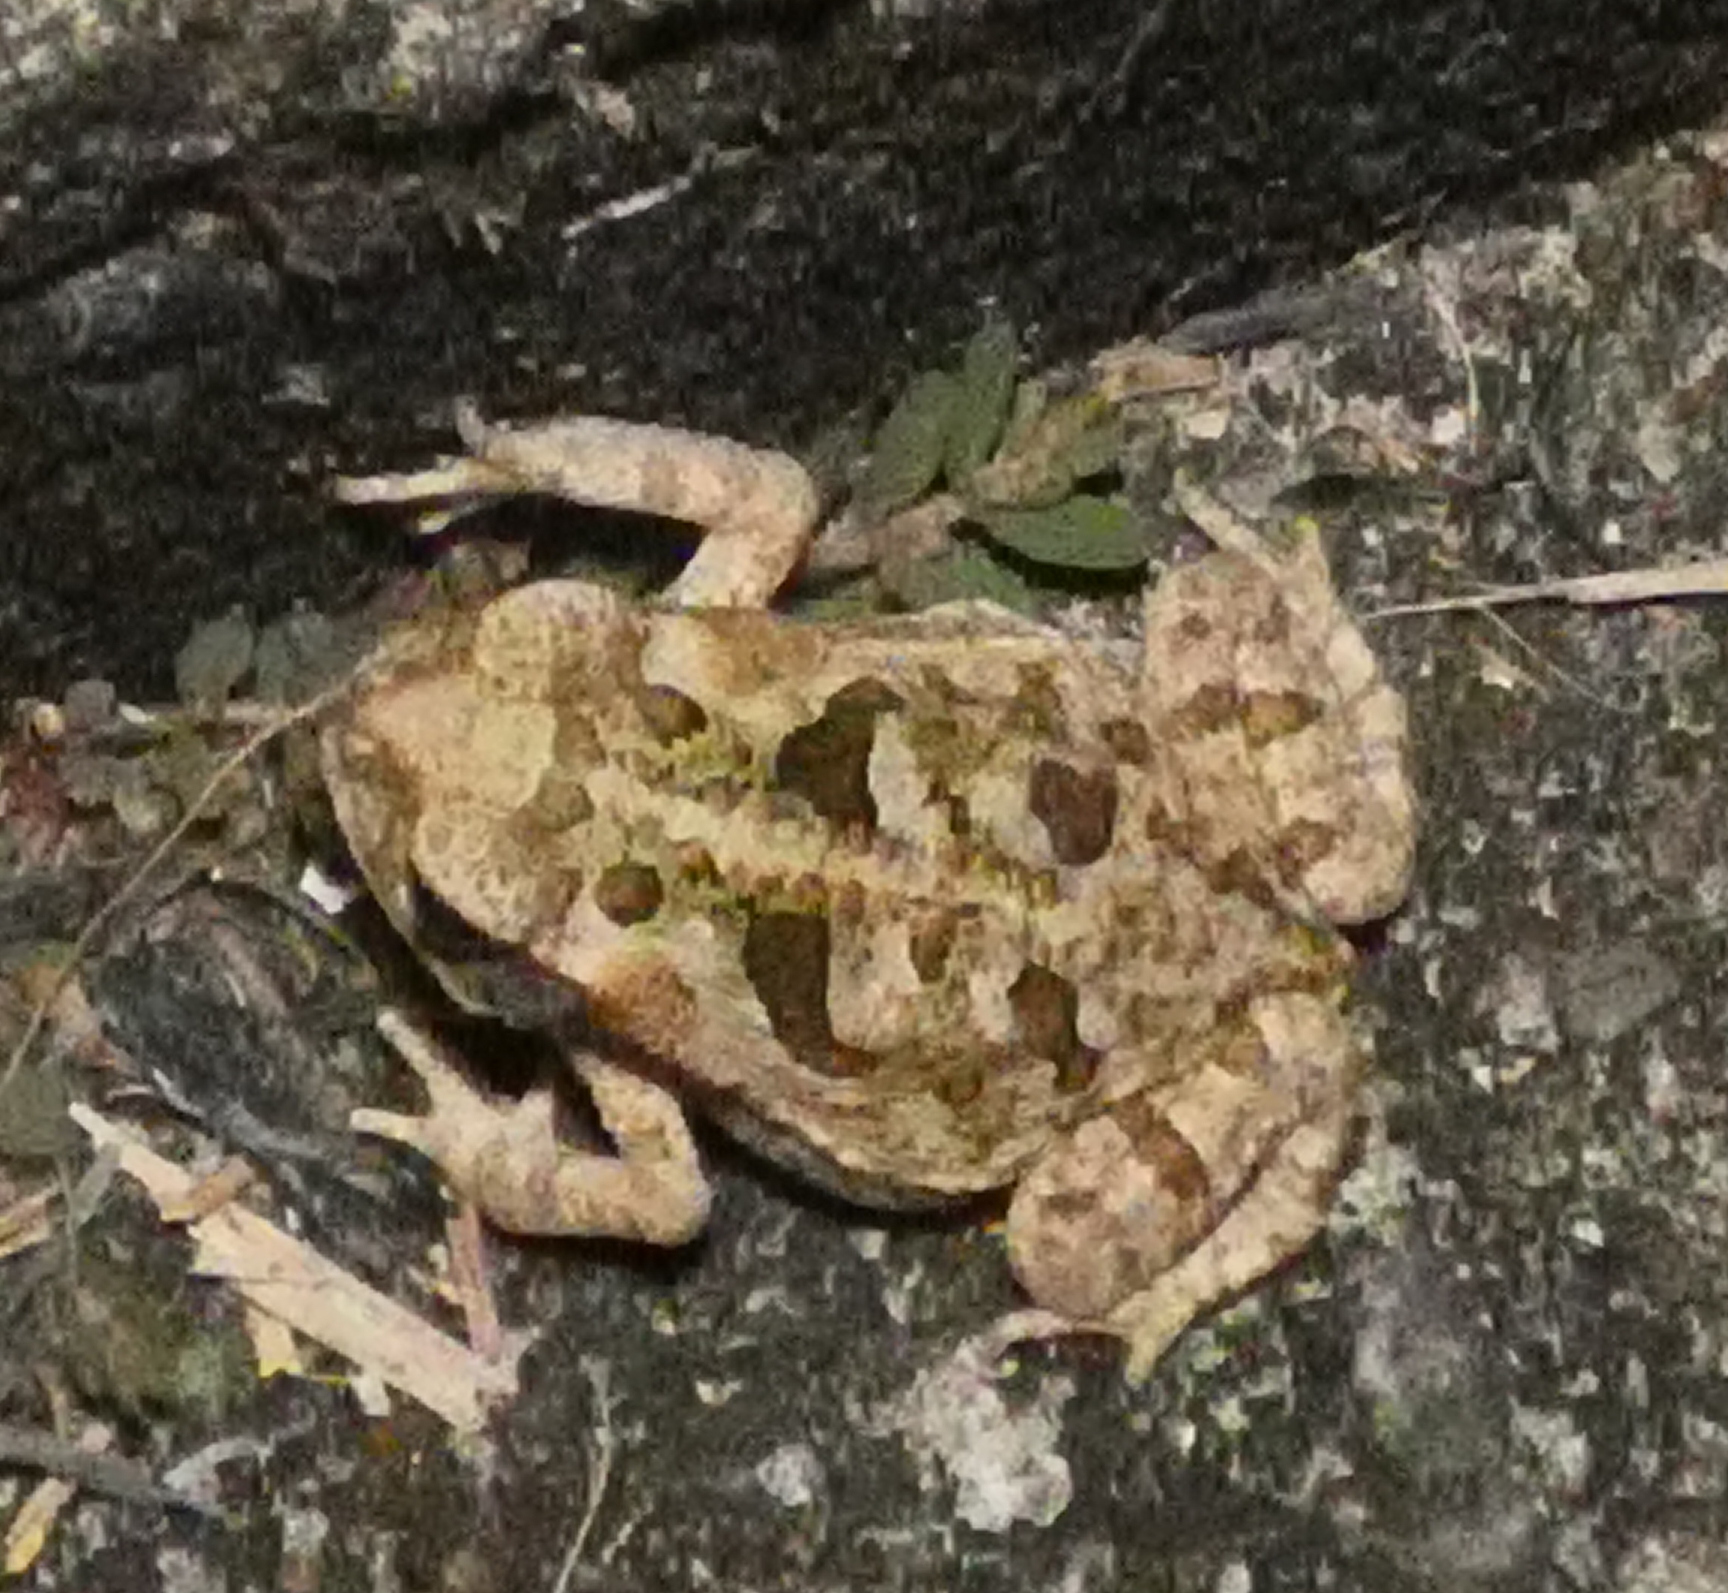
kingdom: Animalia
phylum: Chordata
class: Amphibia
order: Anura
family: Bufonidae
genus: Rhinella
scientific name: Rhinella diptycha
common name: Cope's toad
